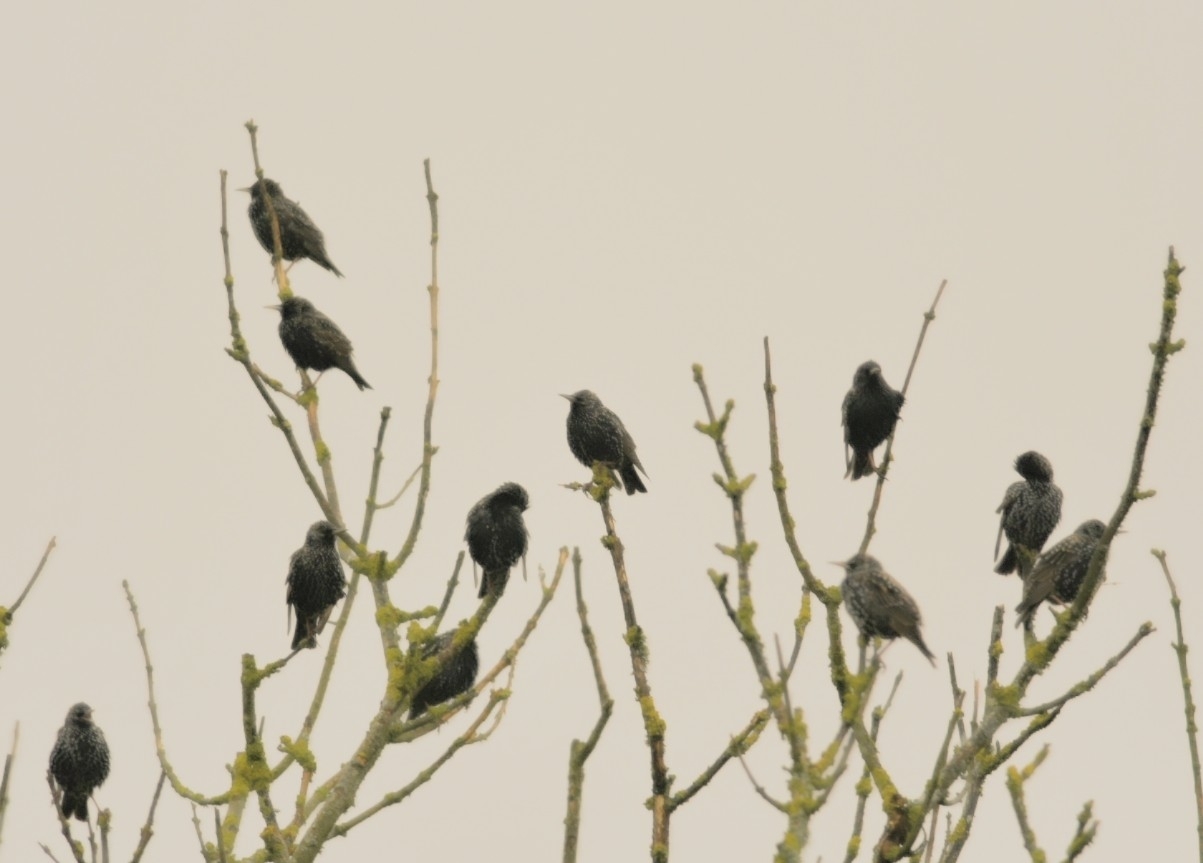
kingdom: Animalia
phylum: Chordata
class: Aves
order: Passeriformes
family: Sturnidae
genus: Sturnus
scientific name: Sturnus vulgaris
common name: Common starling
